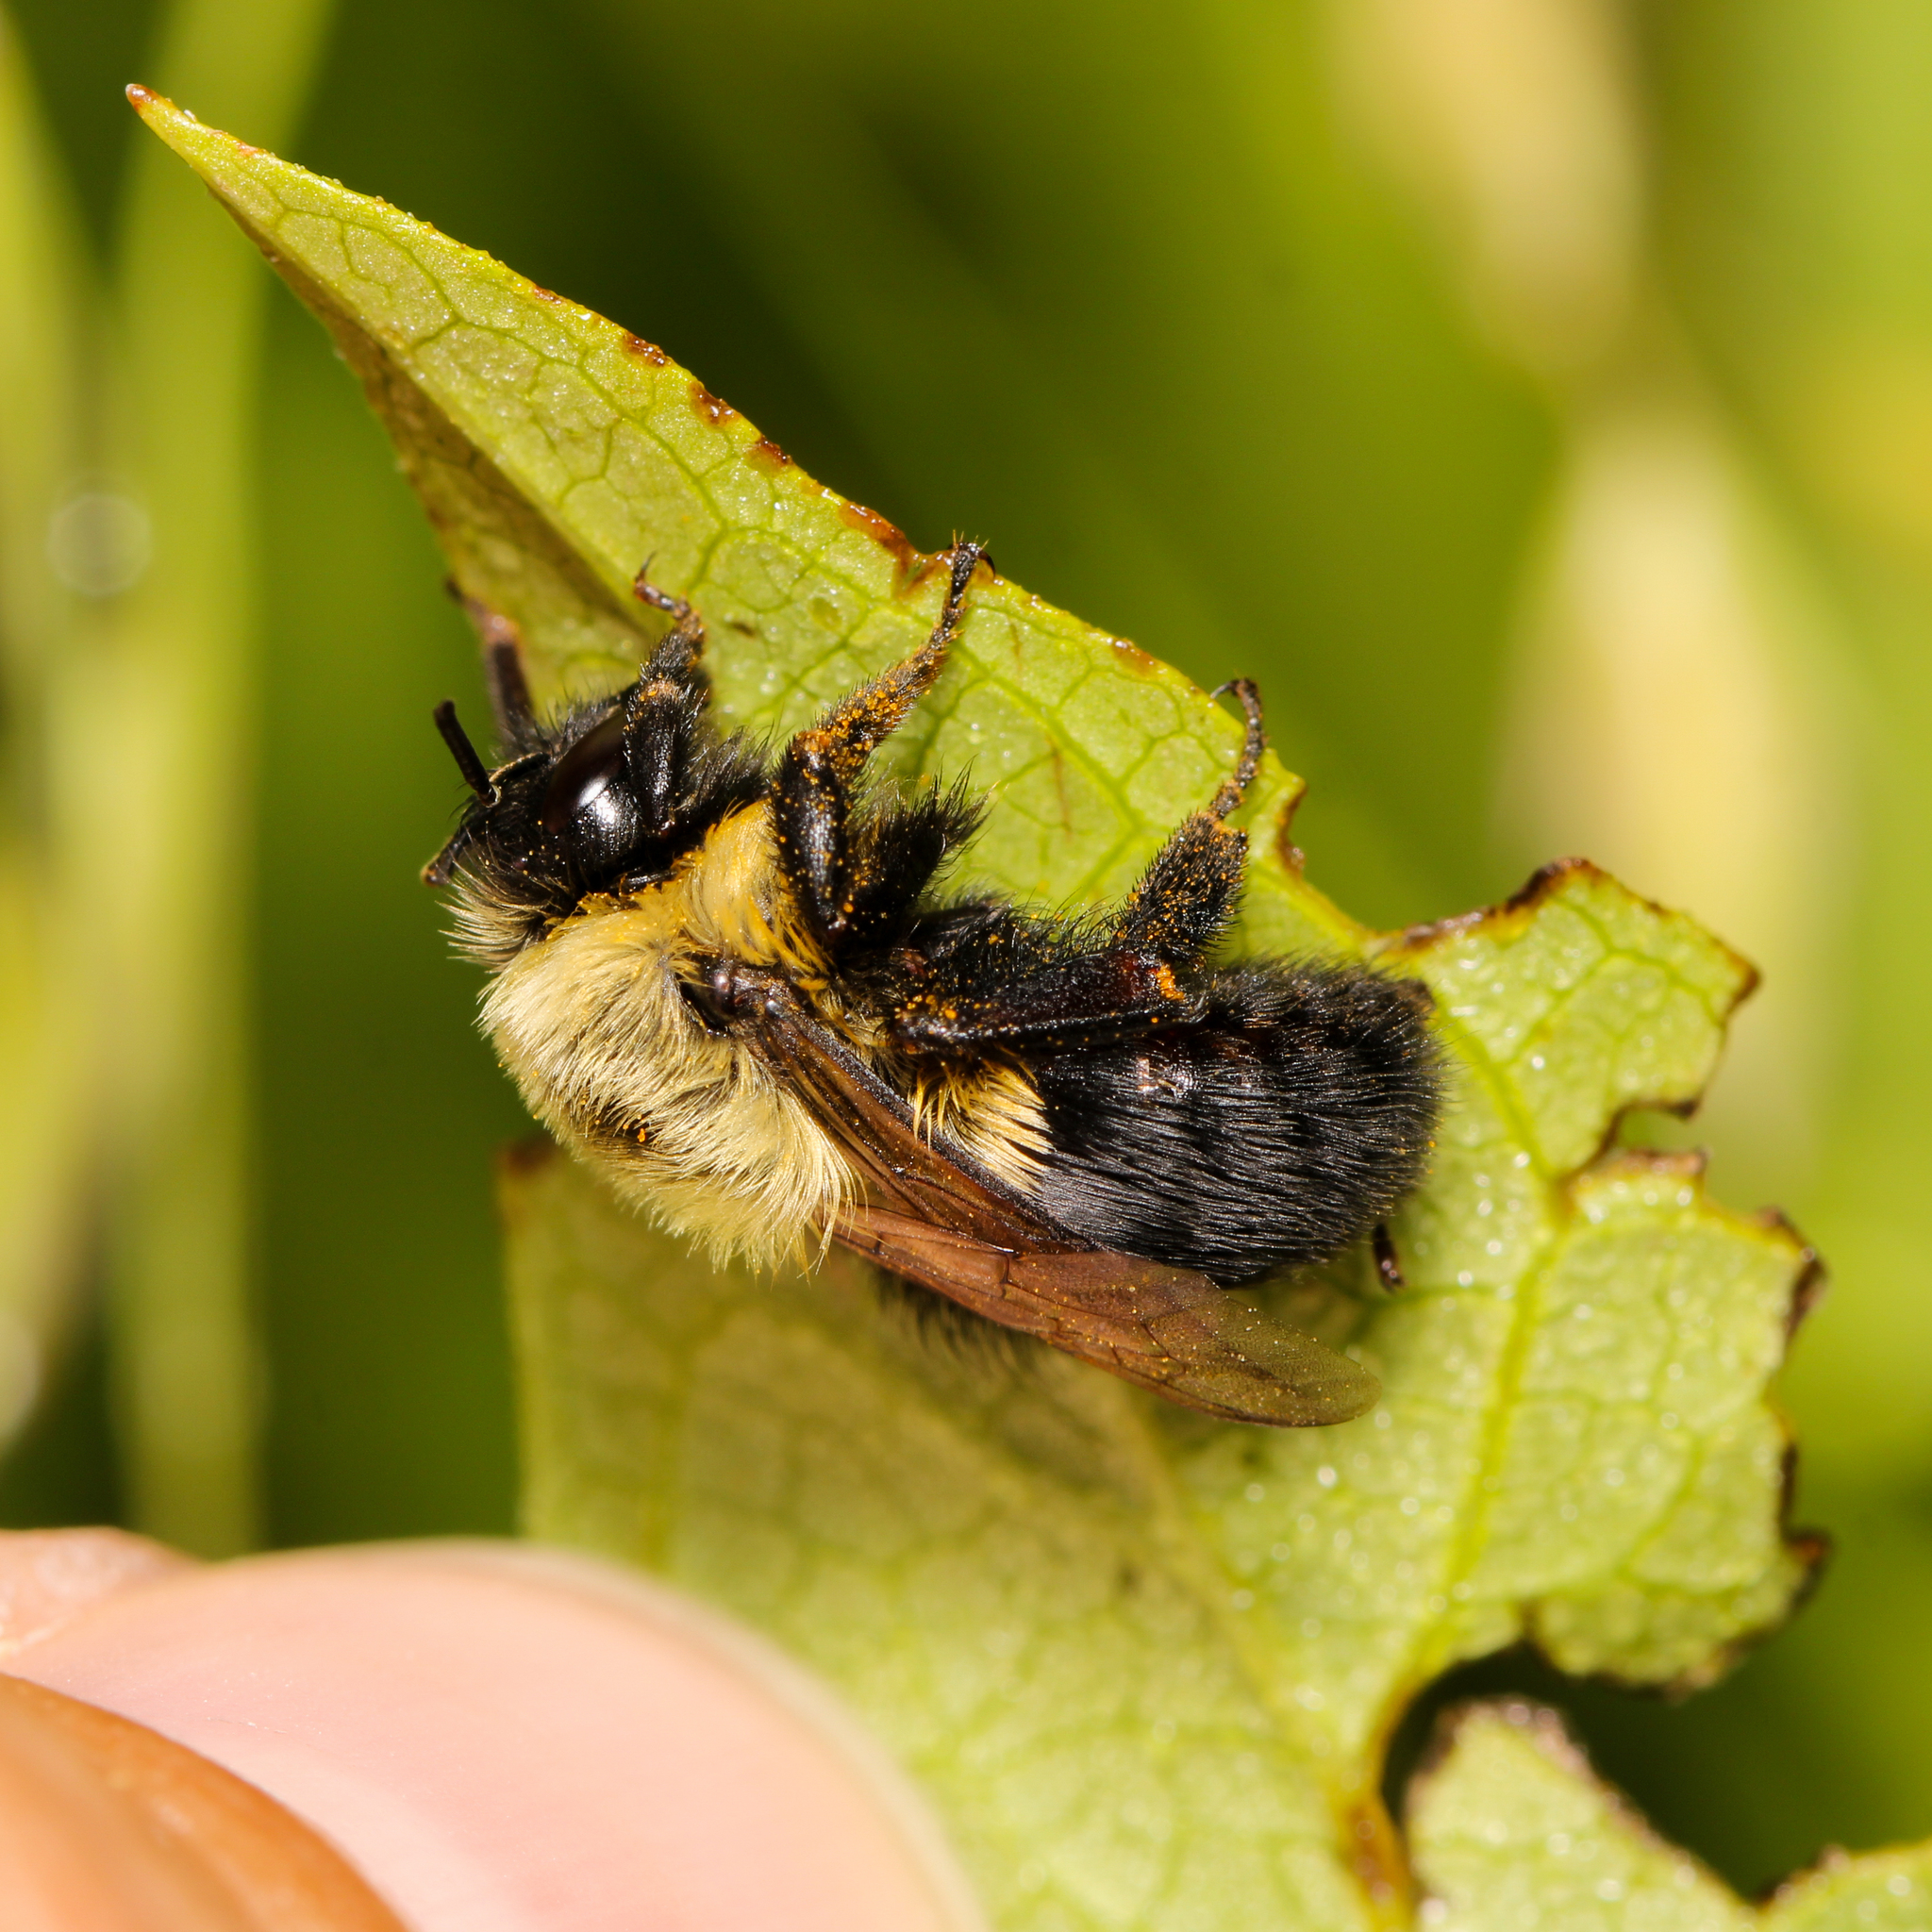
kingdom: Animalia
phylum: Arthropoda
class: Insecta
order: Hymenoptera
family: Apidae
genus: Bombus
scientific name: Bombus impatiens
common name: Common eastern bumble bee
